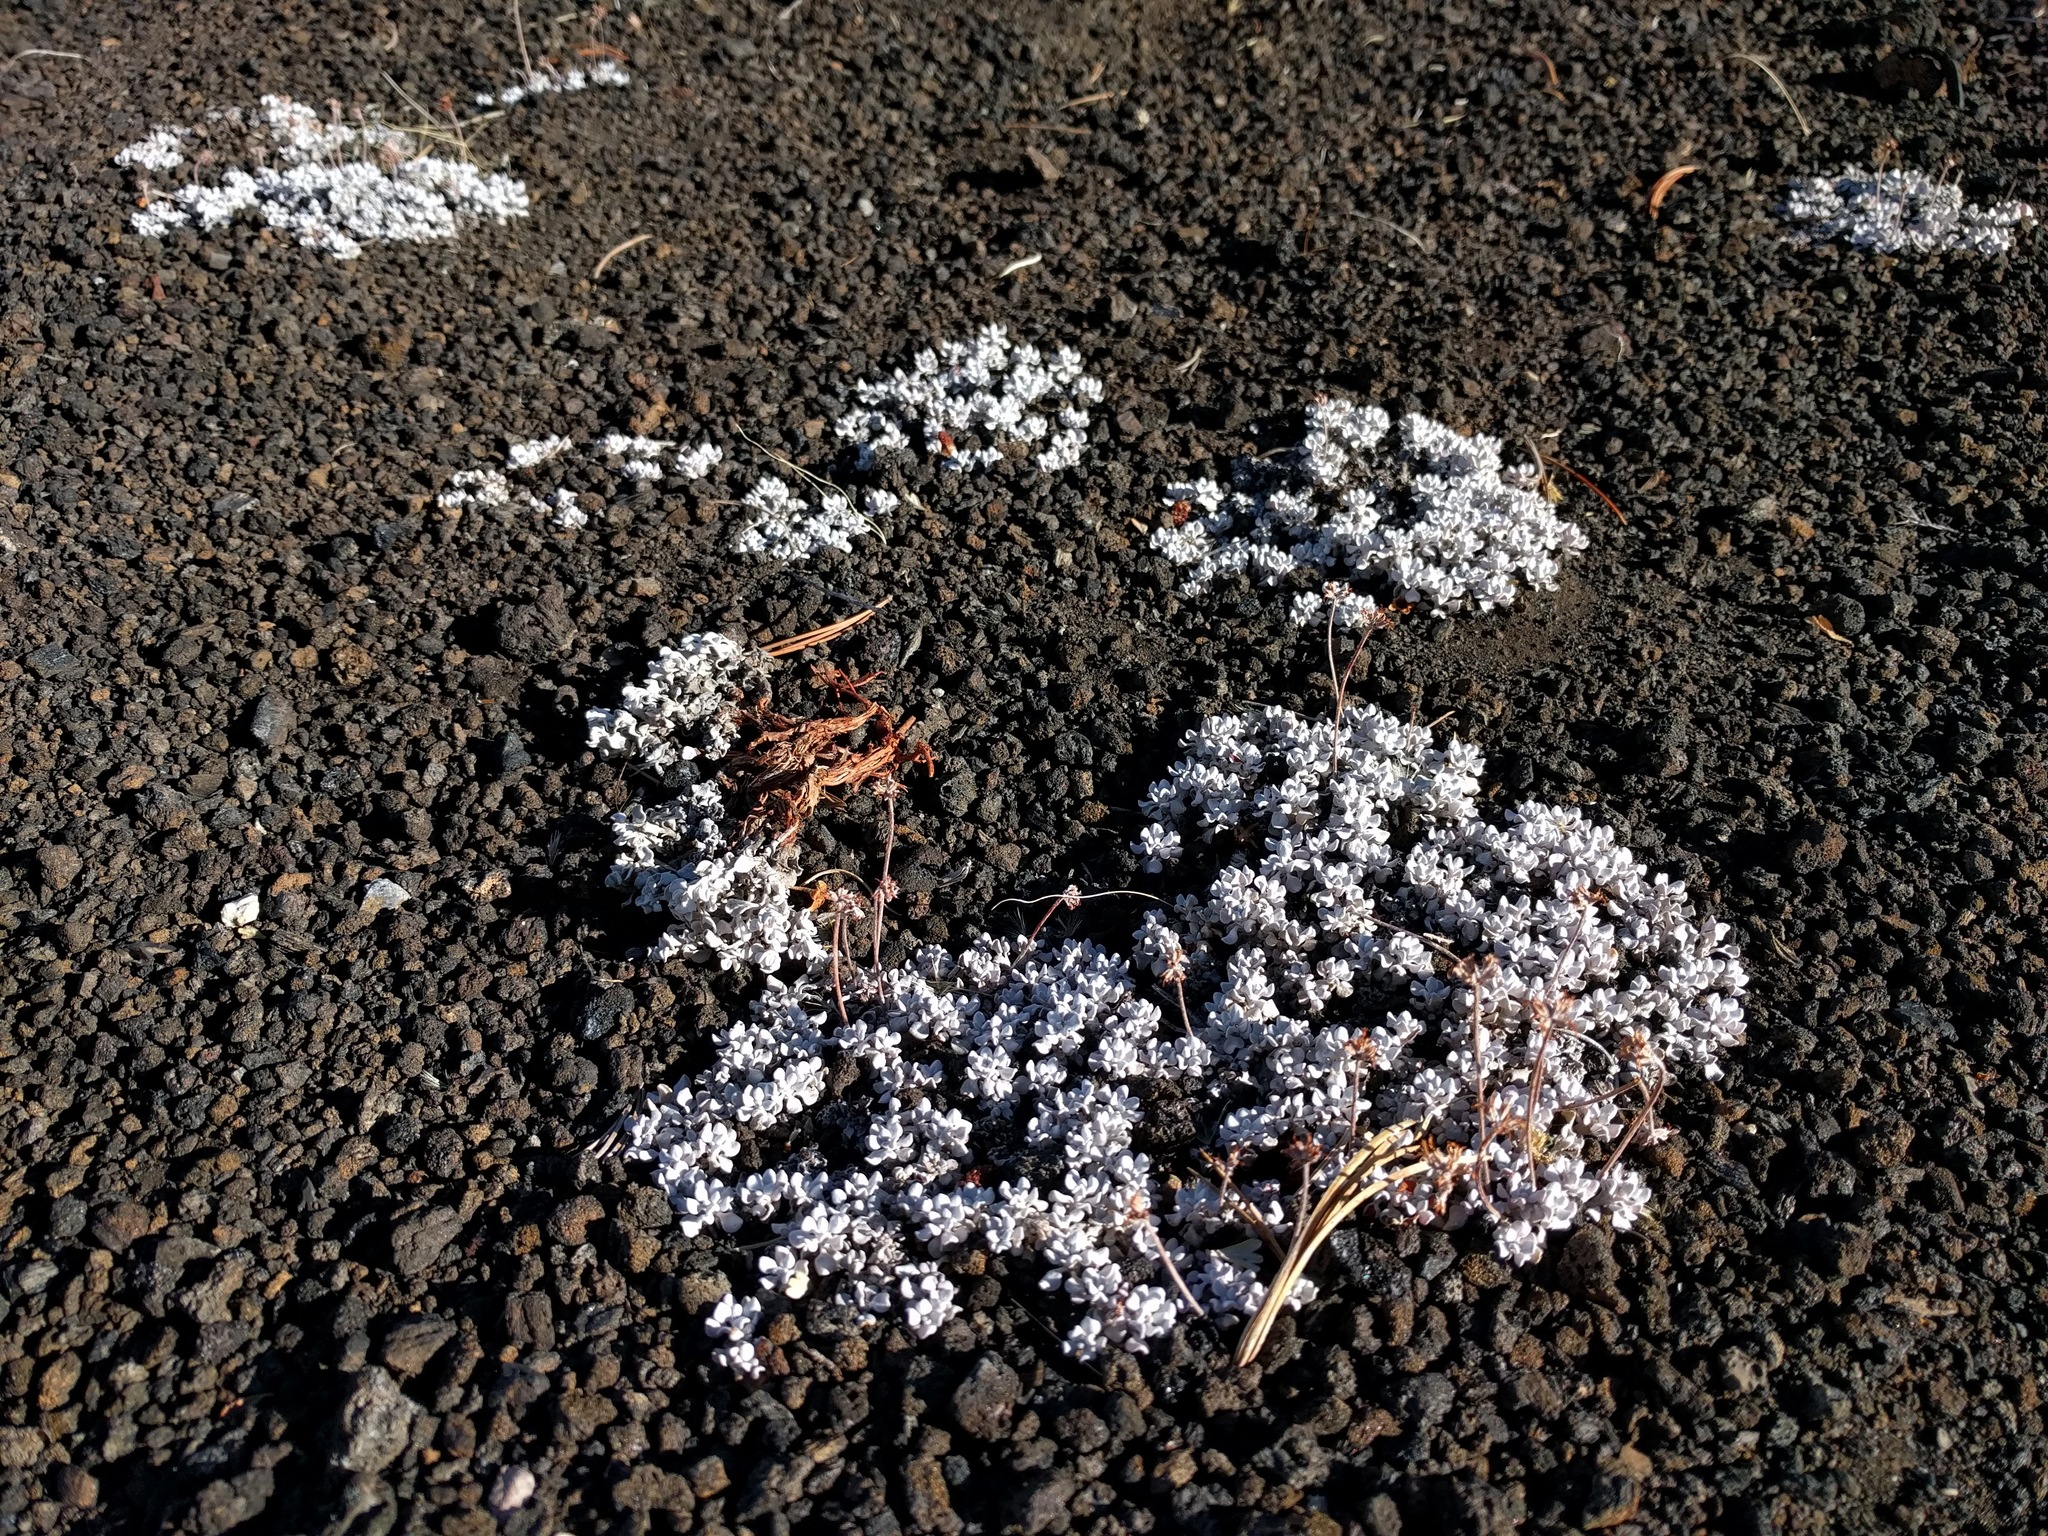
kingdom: Plantae
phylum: Tracheophyta
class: Magnoliopsida
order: Caryophyllales
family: Polygonaceae
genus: Eriogonum
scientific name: Eriogonum ovalifolium
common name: Cushion buckwheat
